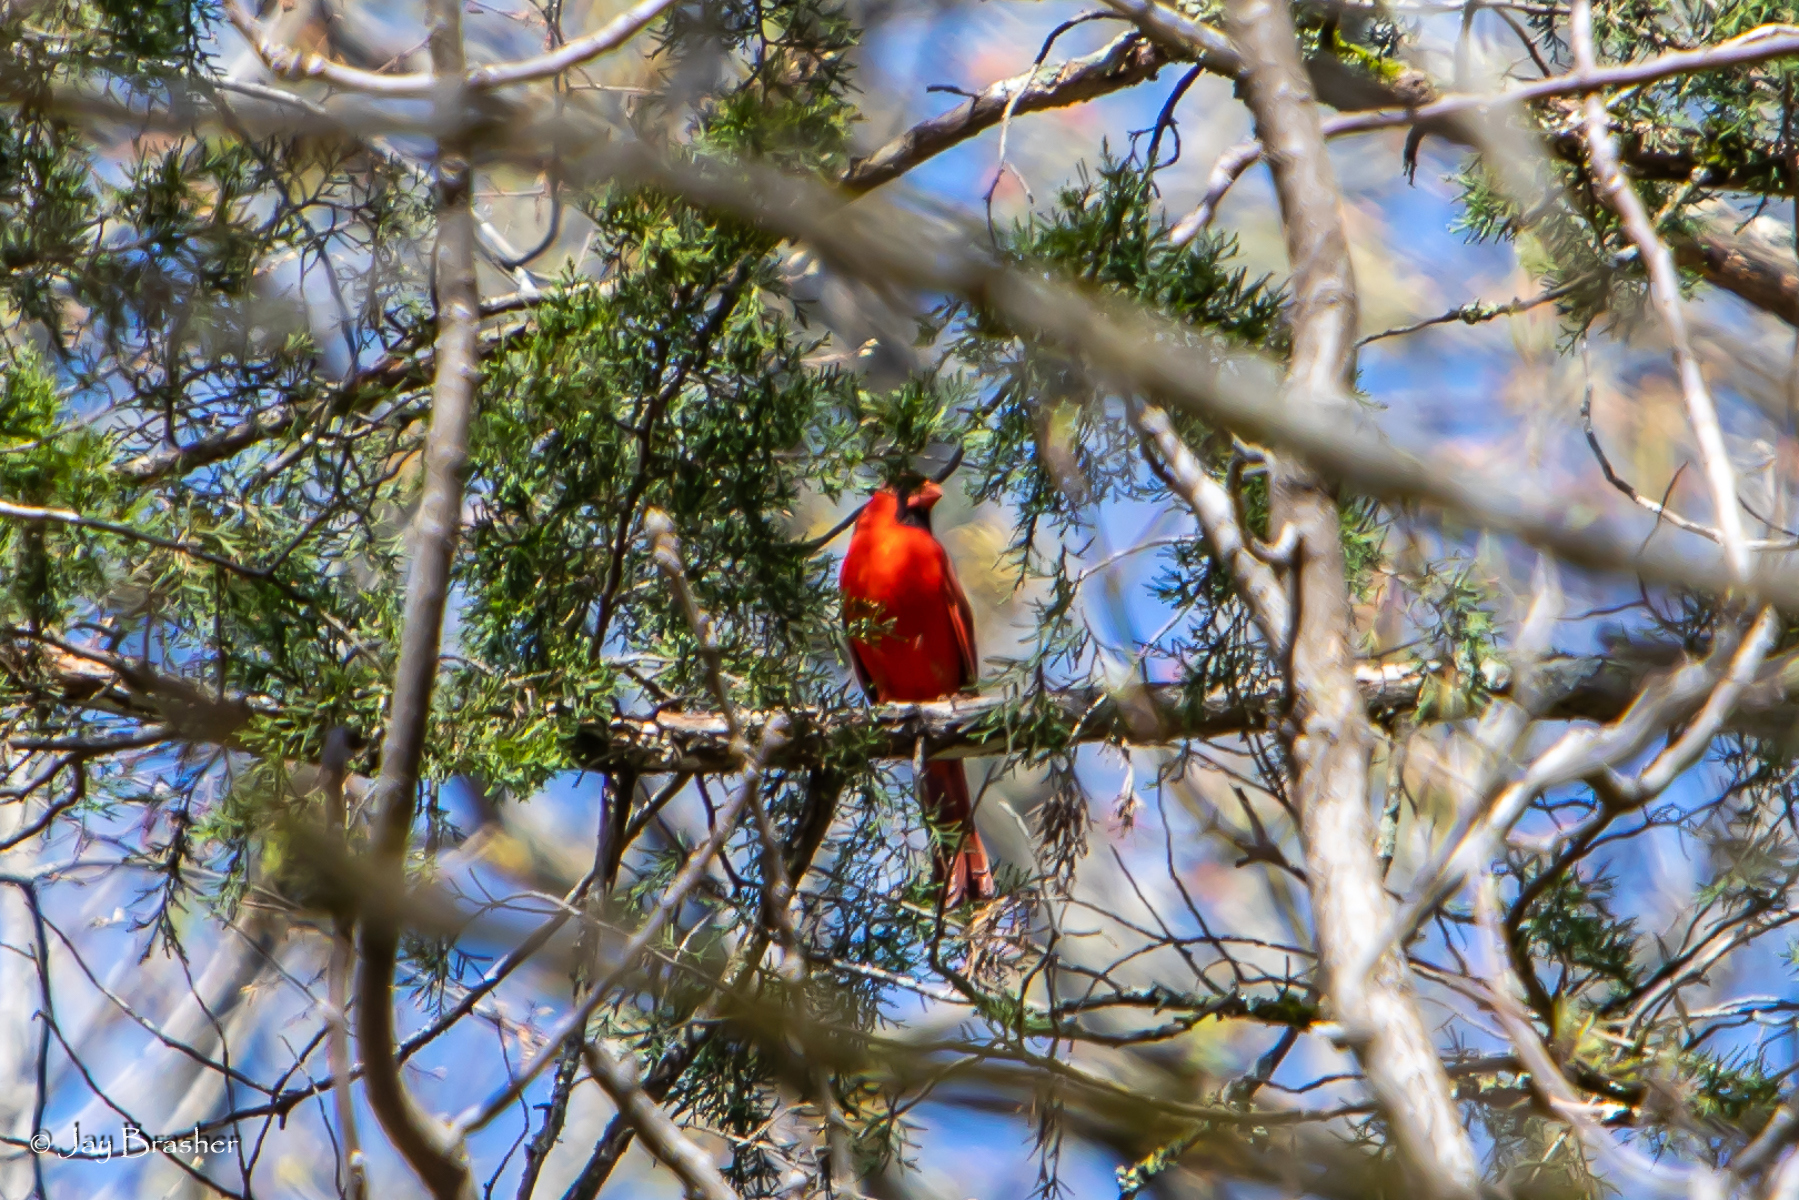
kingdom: Animalia
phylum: Chordata
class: Aves
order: Passeriformes
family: Cardinalidae
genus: Cardinalis
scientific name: Cardinalis cardinalis
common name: Northern cardinal
